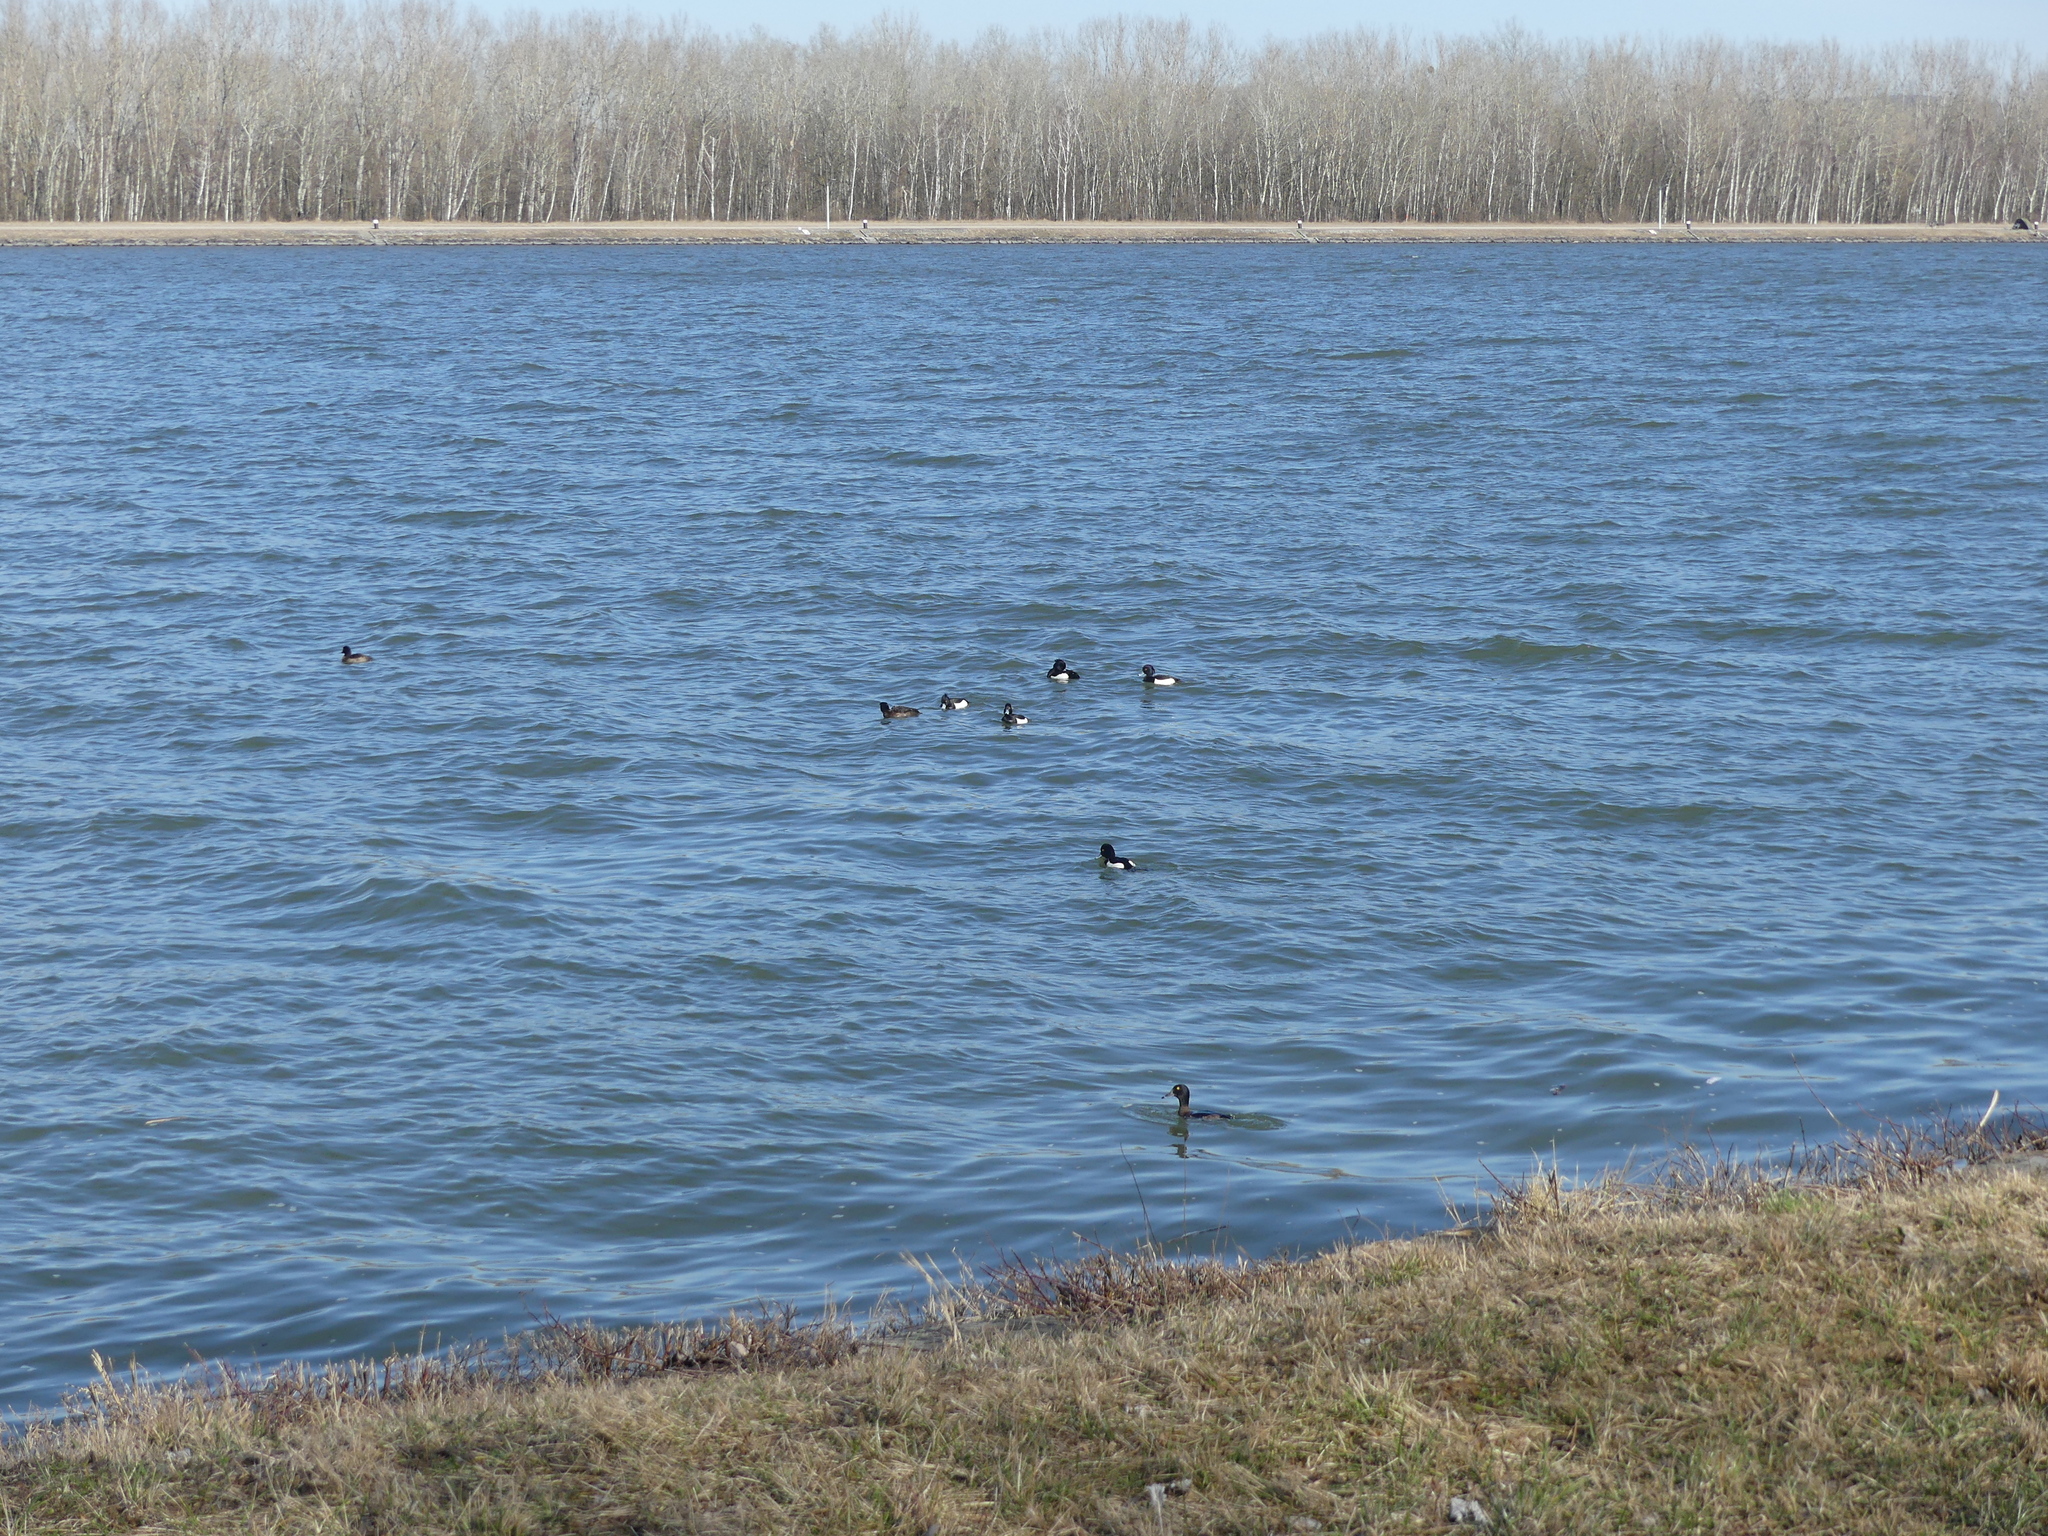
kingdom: Animalia
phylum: Chordata
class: Aves
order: Anseriformes
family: Anatidae
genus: Aythya
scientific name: Aythya fuligula
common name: Tufted duck
